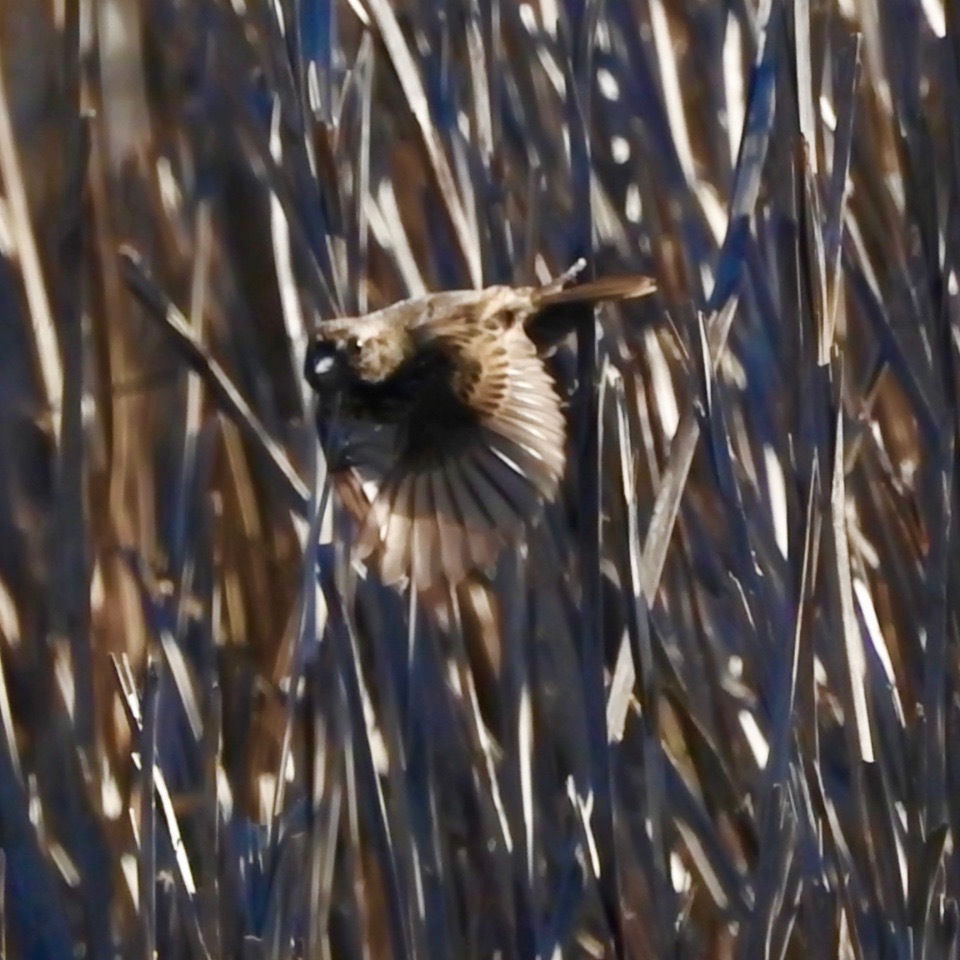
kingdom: Animalia
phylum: Chordata
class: Aves
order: Passeriformes
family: Passerellidae
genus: Melospiza
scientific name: Melospiza melodia
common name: Song sparrow
